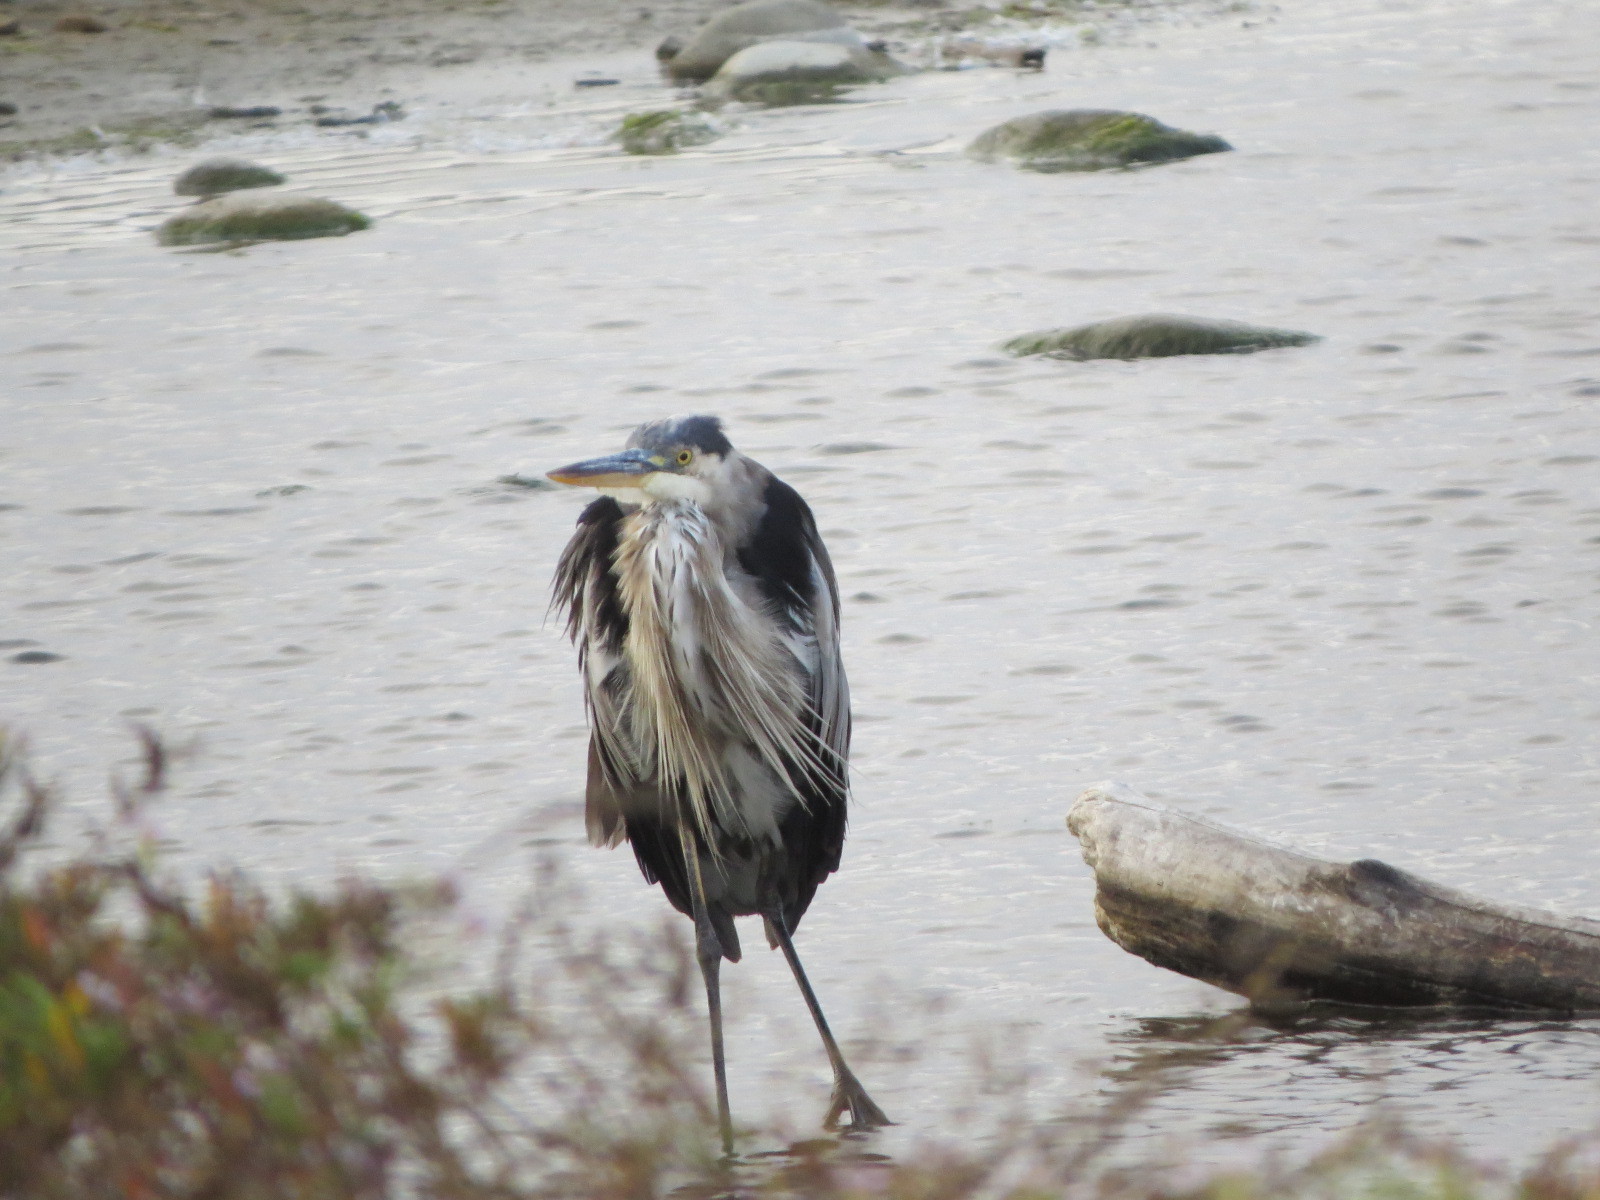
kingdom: Animalia
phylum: Chordata
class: Aves
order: Pelecaniformes
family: Ardeidae
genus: Ardea
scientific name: Ardea herodias
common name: Great blue heron
